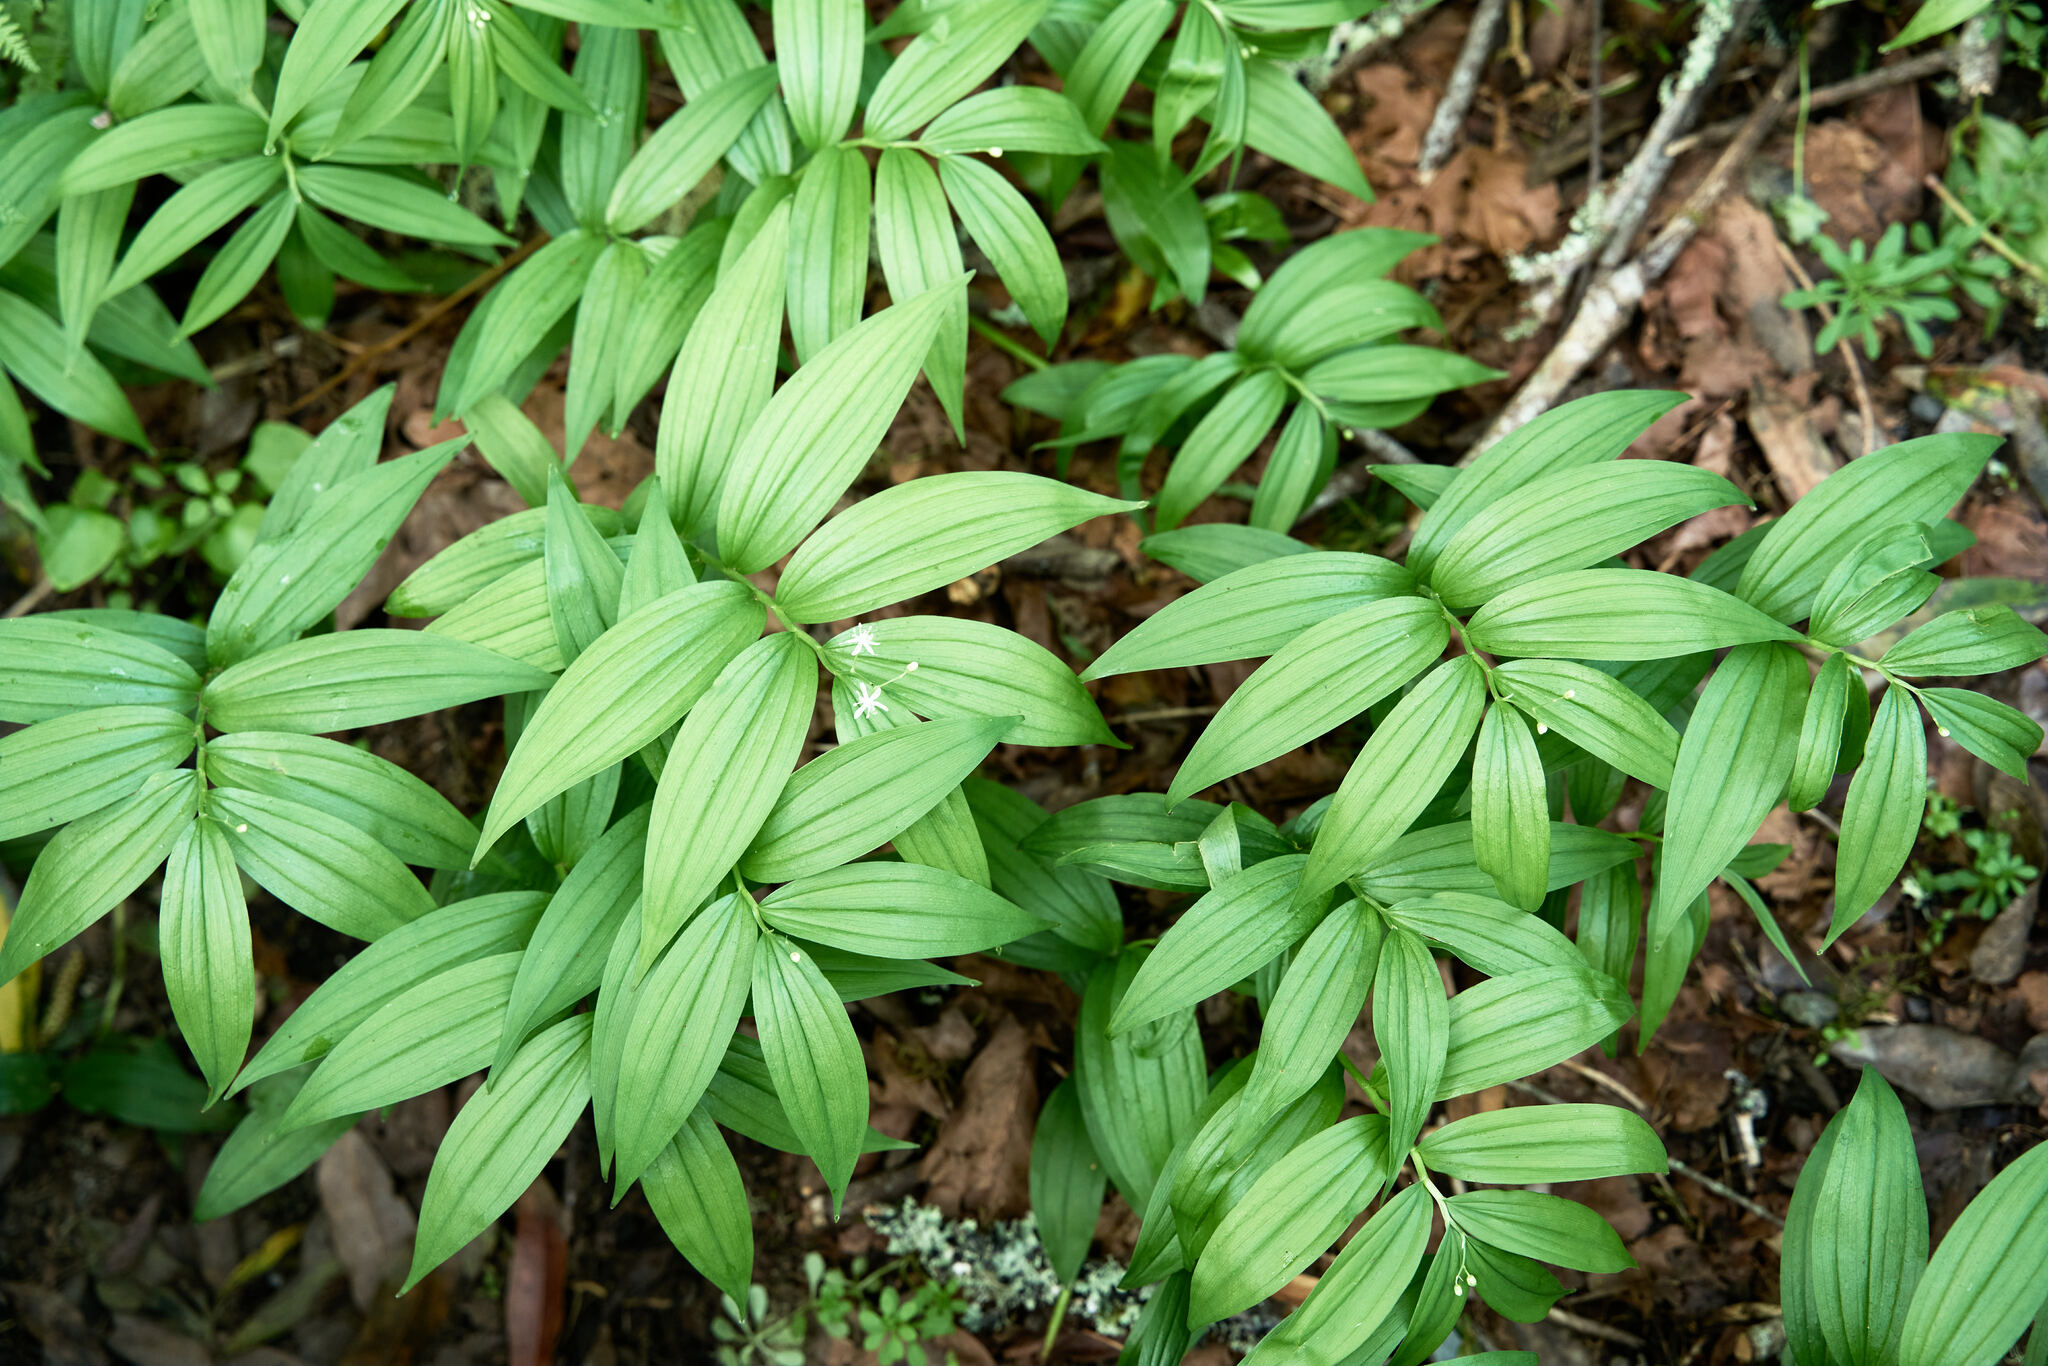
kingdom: Plantae
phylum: Tracheophyta
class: Liliopsida
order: Asparagales
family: Asparagaceae
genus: Maianthemum
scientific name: Maianthemum stellatum
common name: Little false solomon's seal
